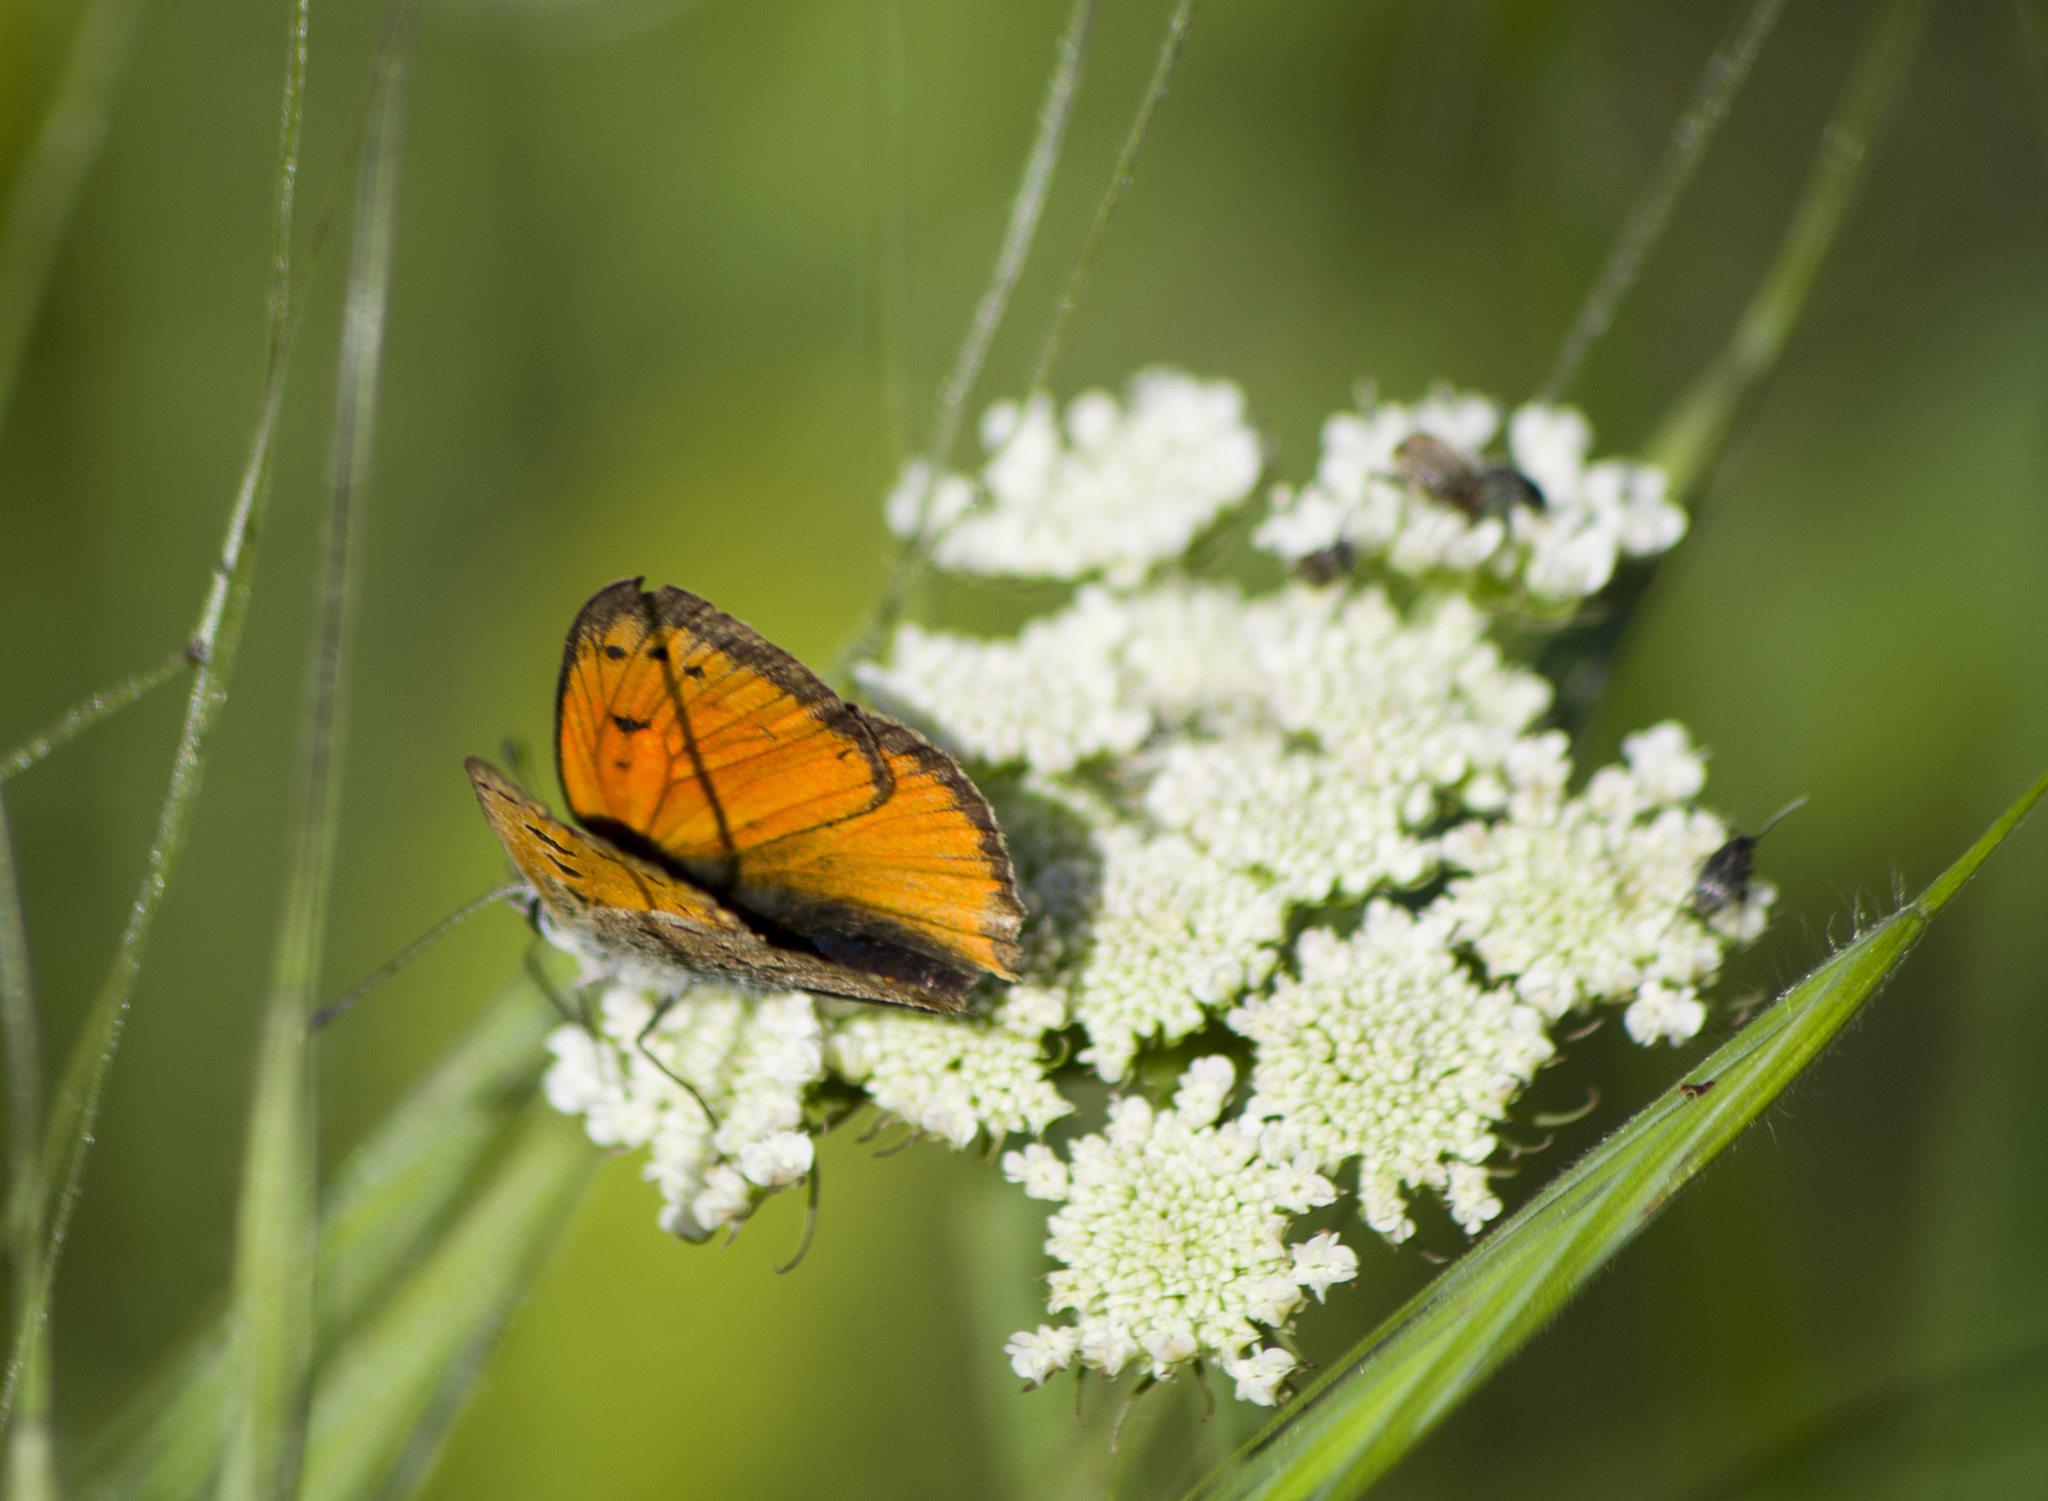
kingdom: Animalia
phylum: Arthropoda
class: Insecta
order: Lepidoptera
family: Lycaenidae
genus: Polyommatus
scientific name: Polyommatus ottomanus
